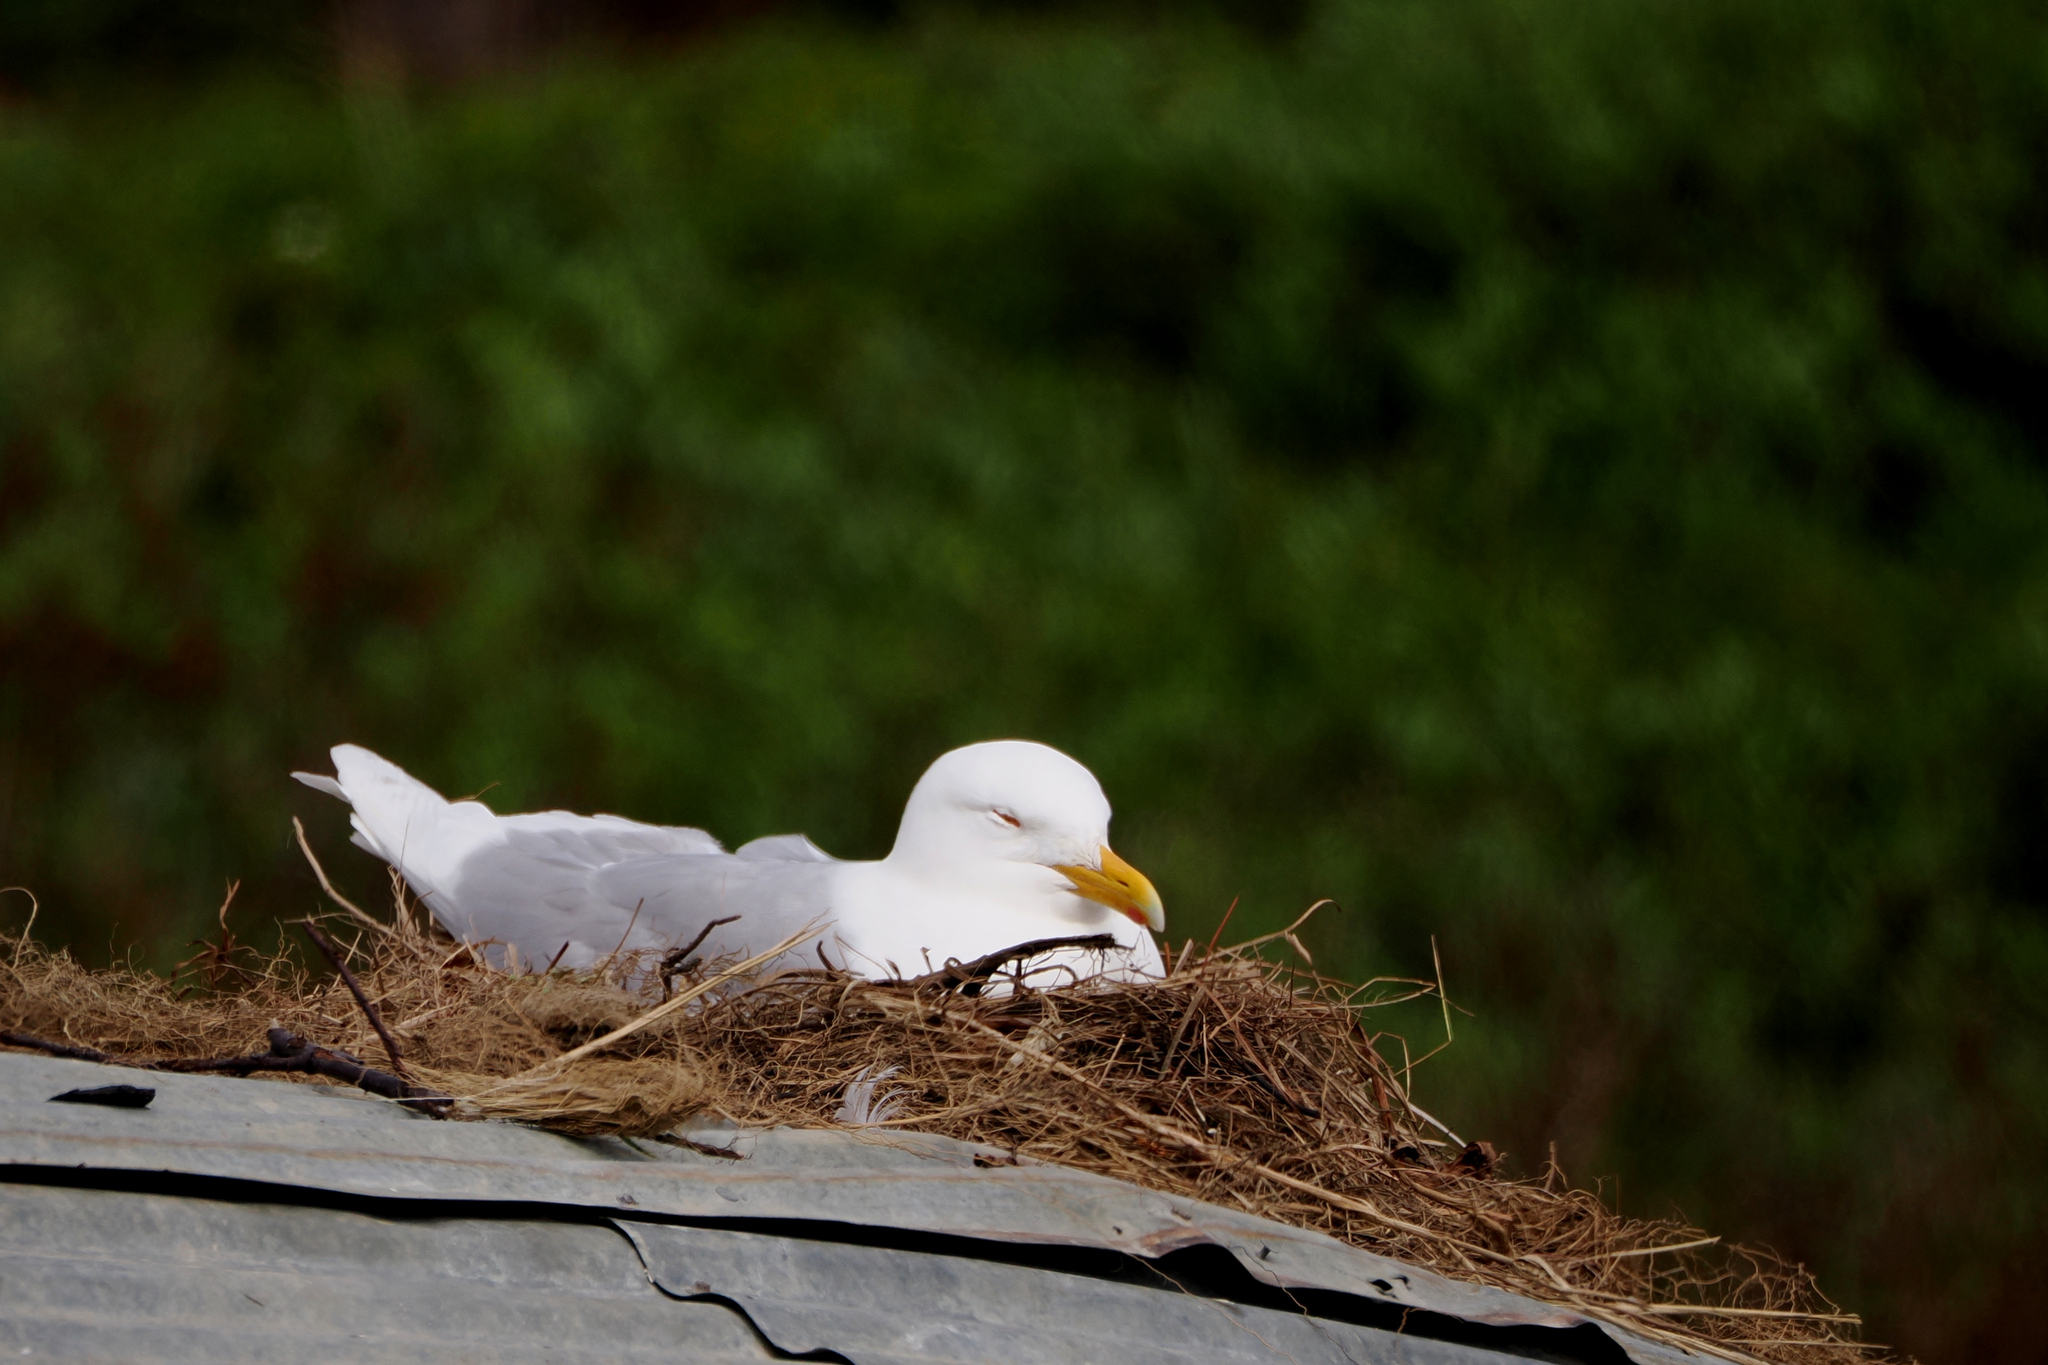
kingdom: Animalia
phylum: Chordata
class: Aves
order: Charadriiformes
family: Laridae
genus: Larus
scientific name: Larus hyperboreus
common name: Glaucous gull
